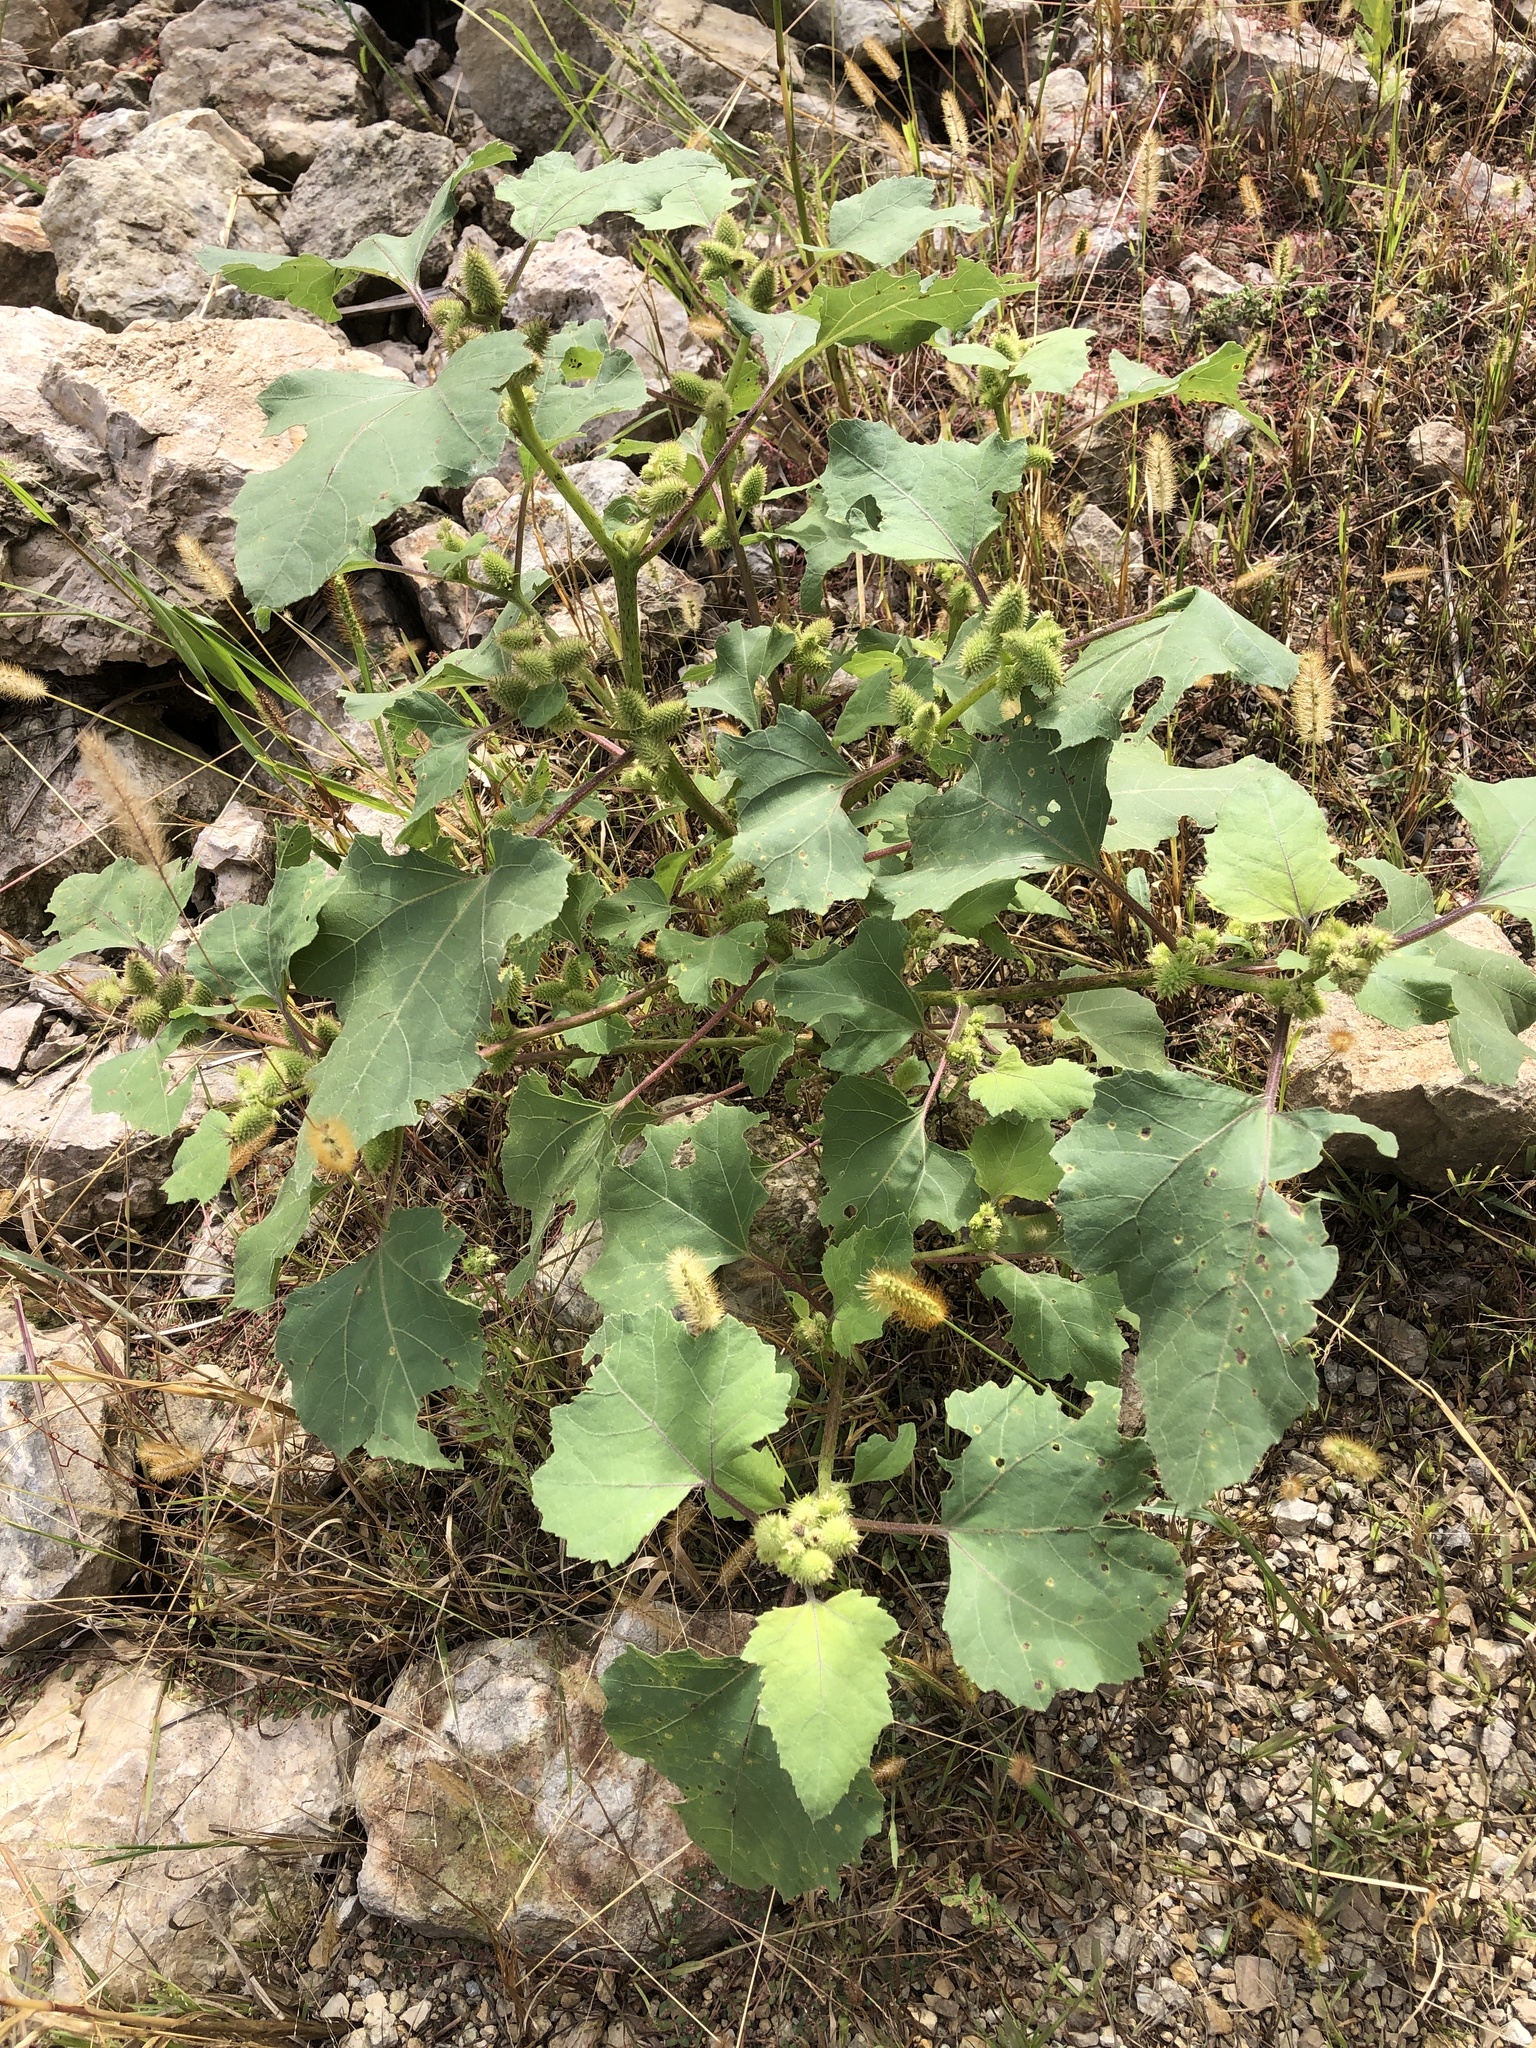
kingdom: Plantae
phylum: Tracheophyta
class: Magnoliopsida
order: Asterales
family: Asteraceae
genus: Xanthium
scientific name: Xanthium strumarium
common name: Rough cocklebur
